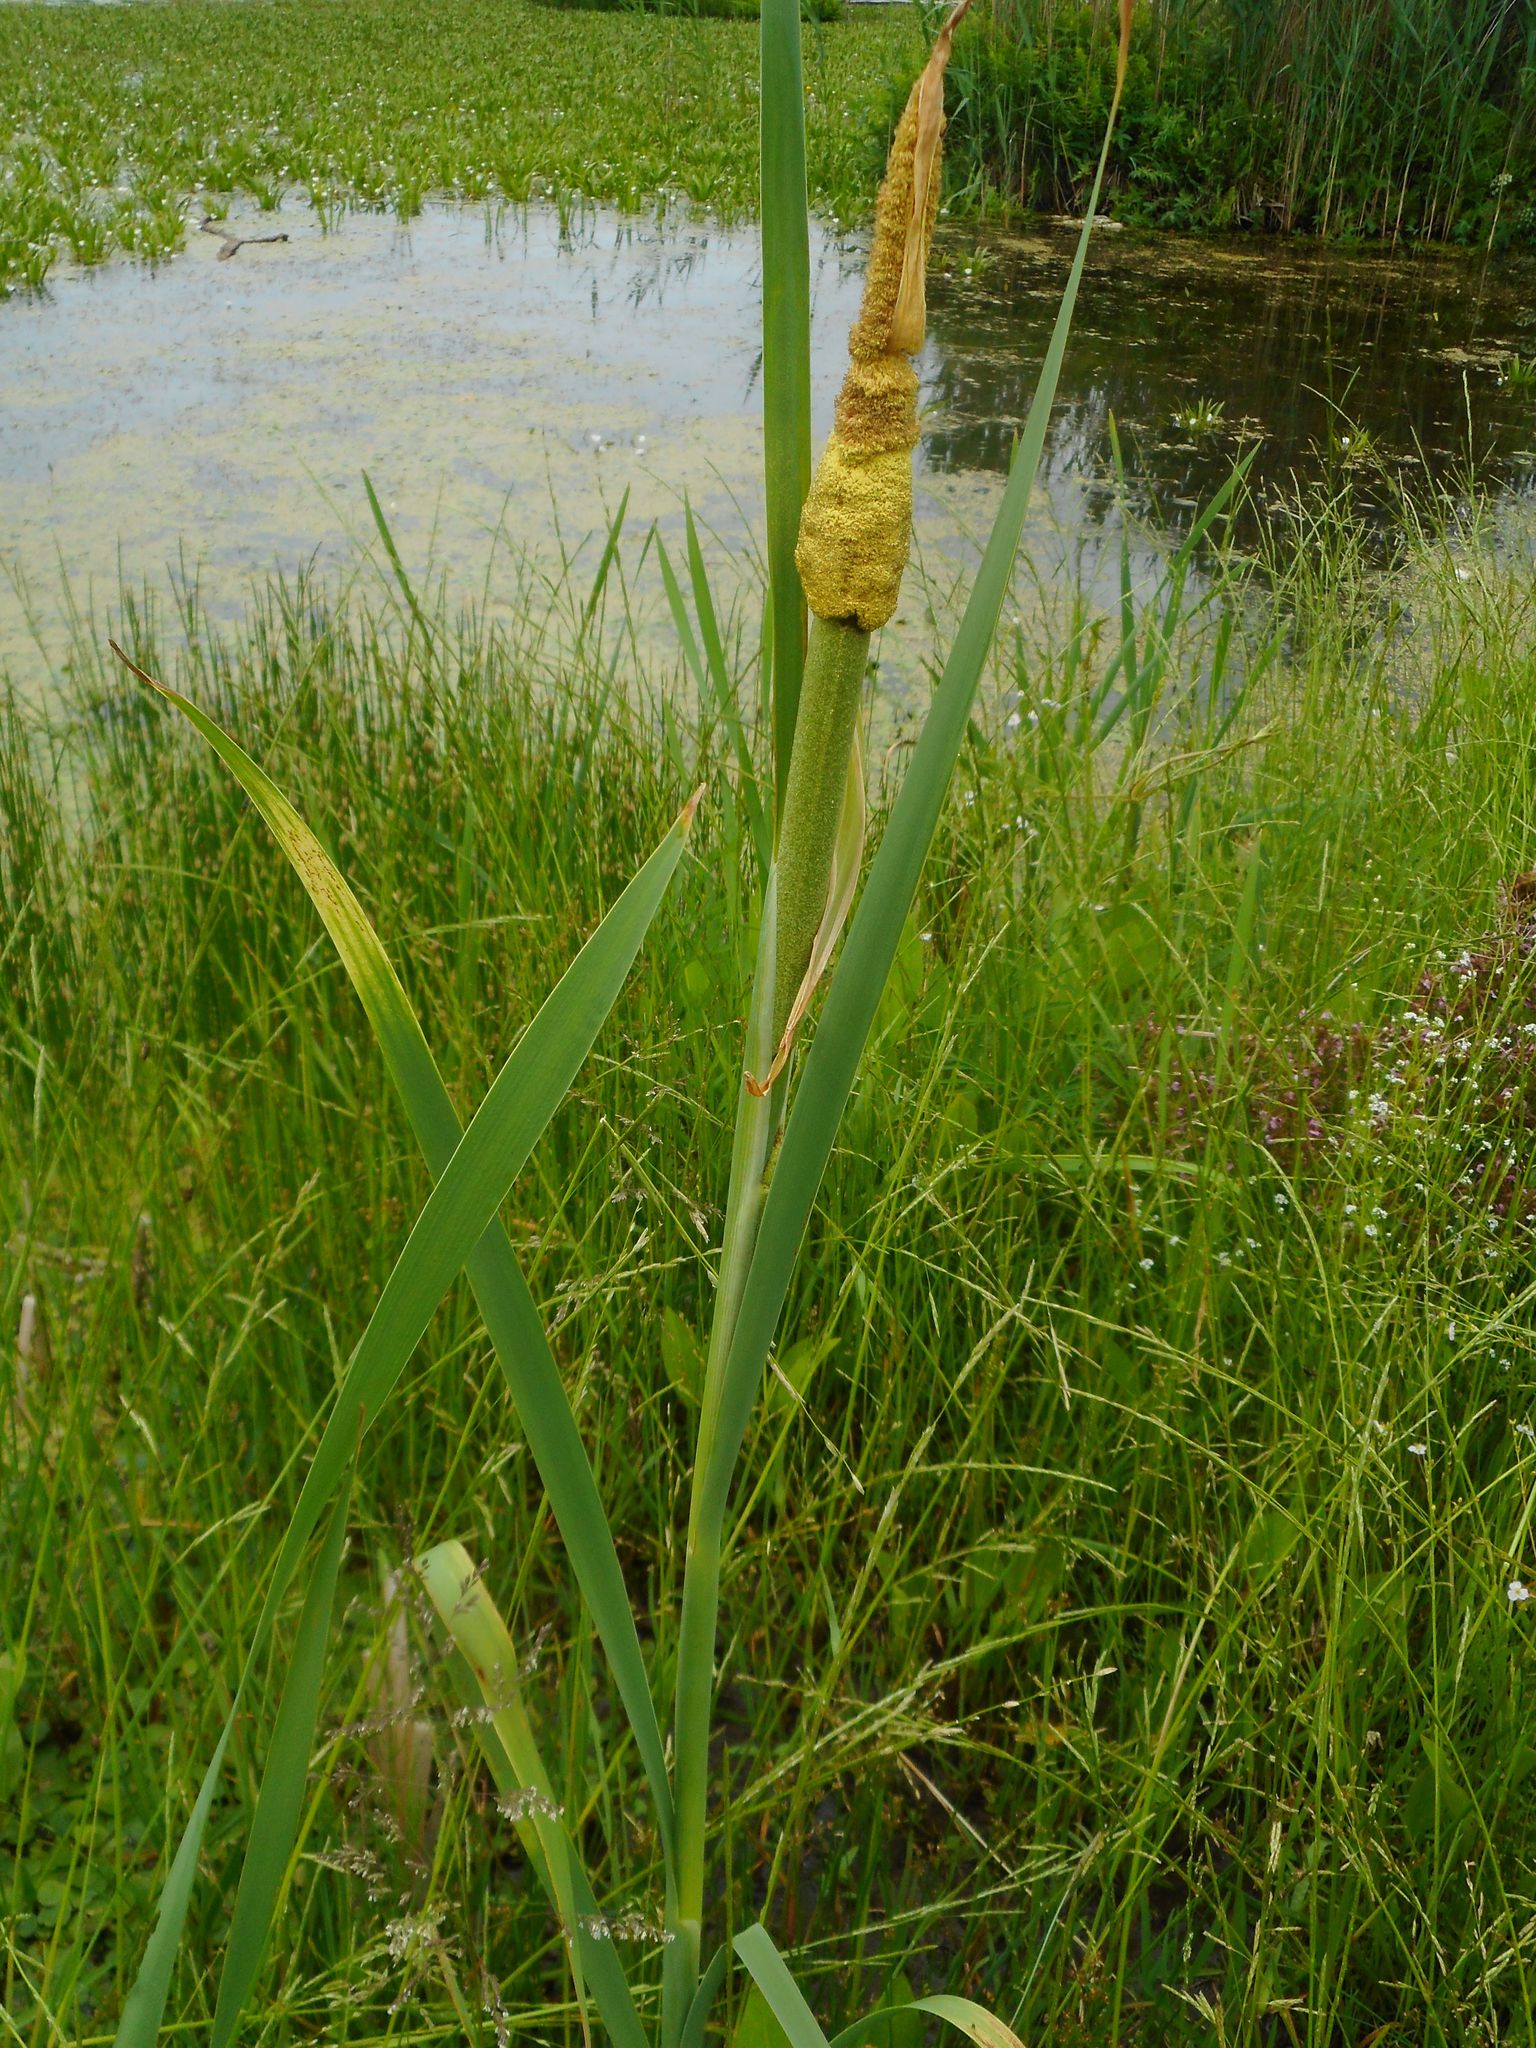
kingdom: Plantae
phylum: Tracheophyta
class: Liliopsida
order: Poales
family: Typhaceae
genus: Typha
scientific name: Typha latifolia
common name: Broadleaf cattail
